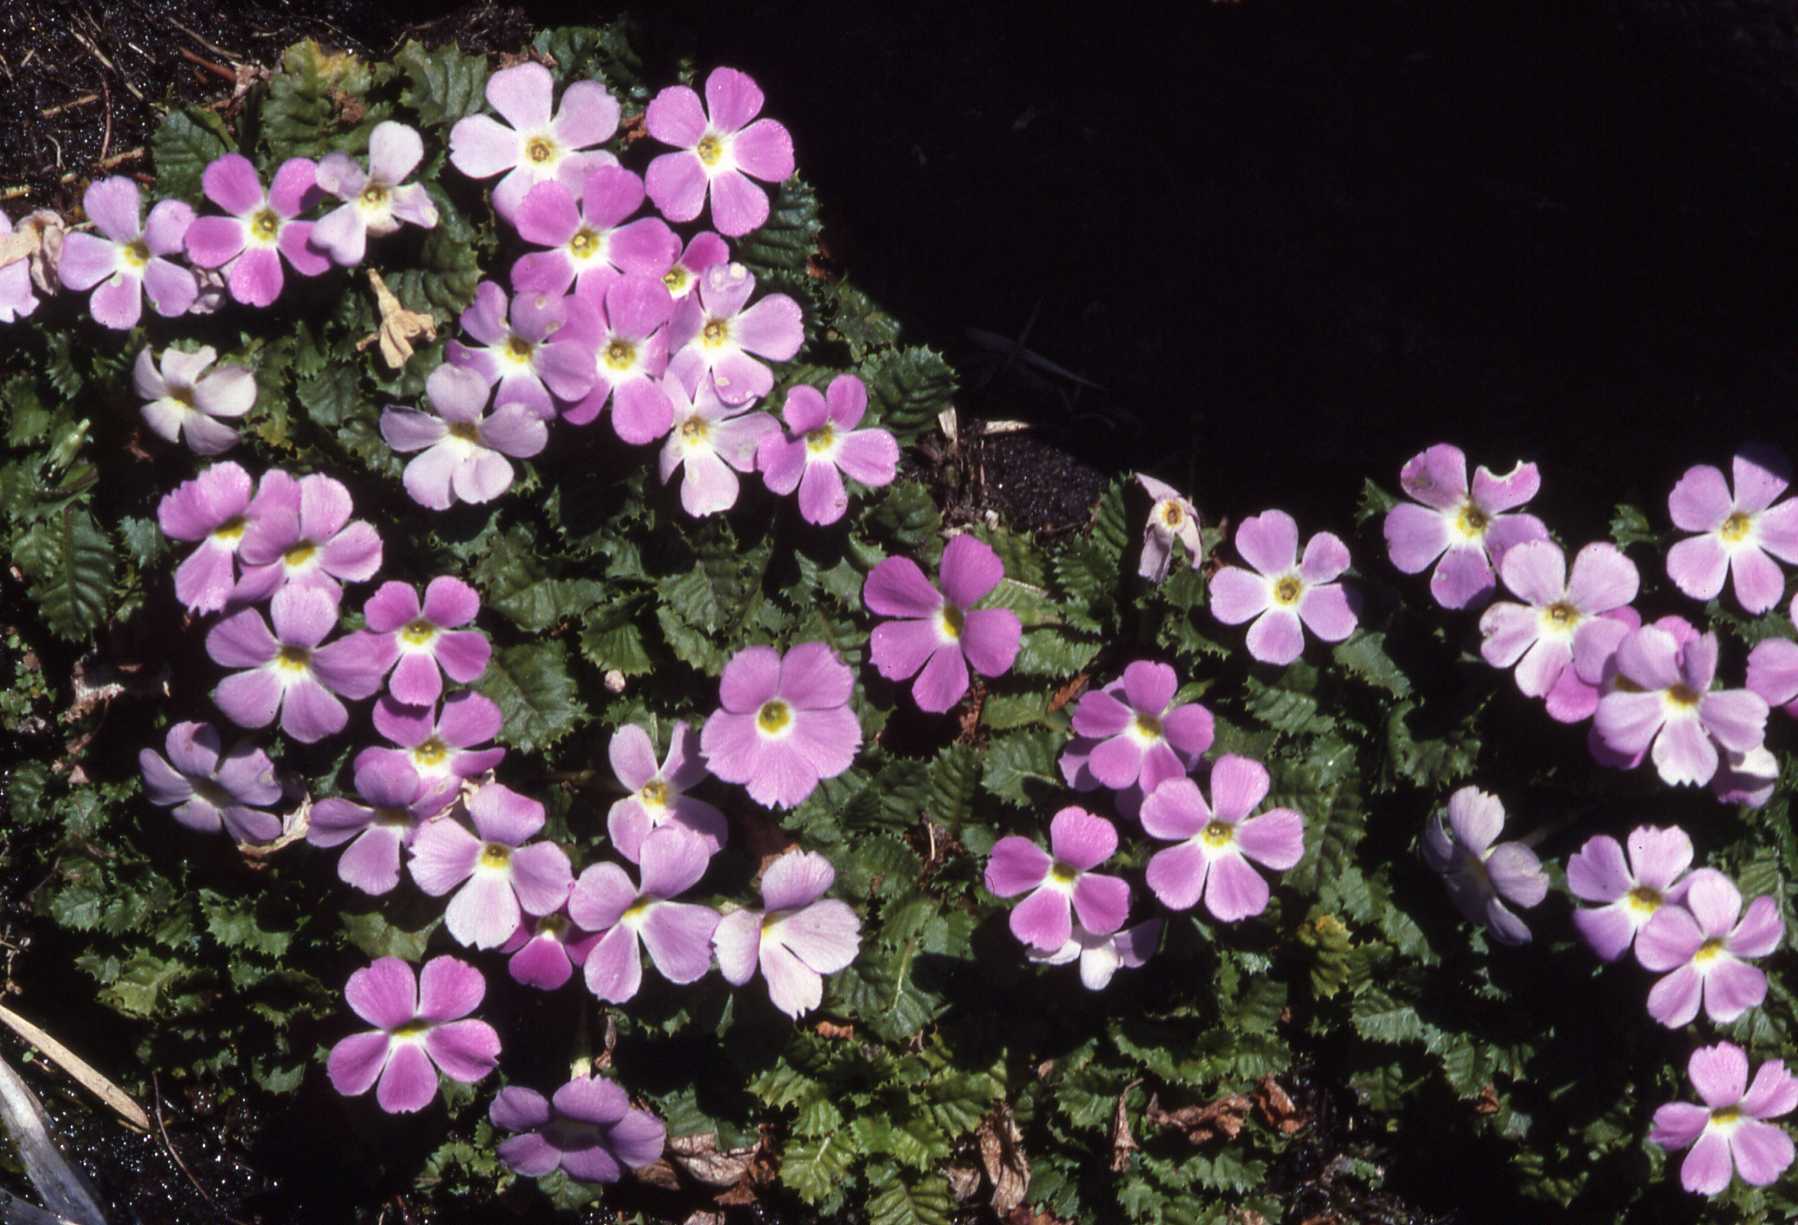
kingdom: Plantae
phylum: Tracheophyta
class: Magnoliopsida
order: Ericales
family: Primulaceae
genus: Primula
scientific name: Primula gracilipes
